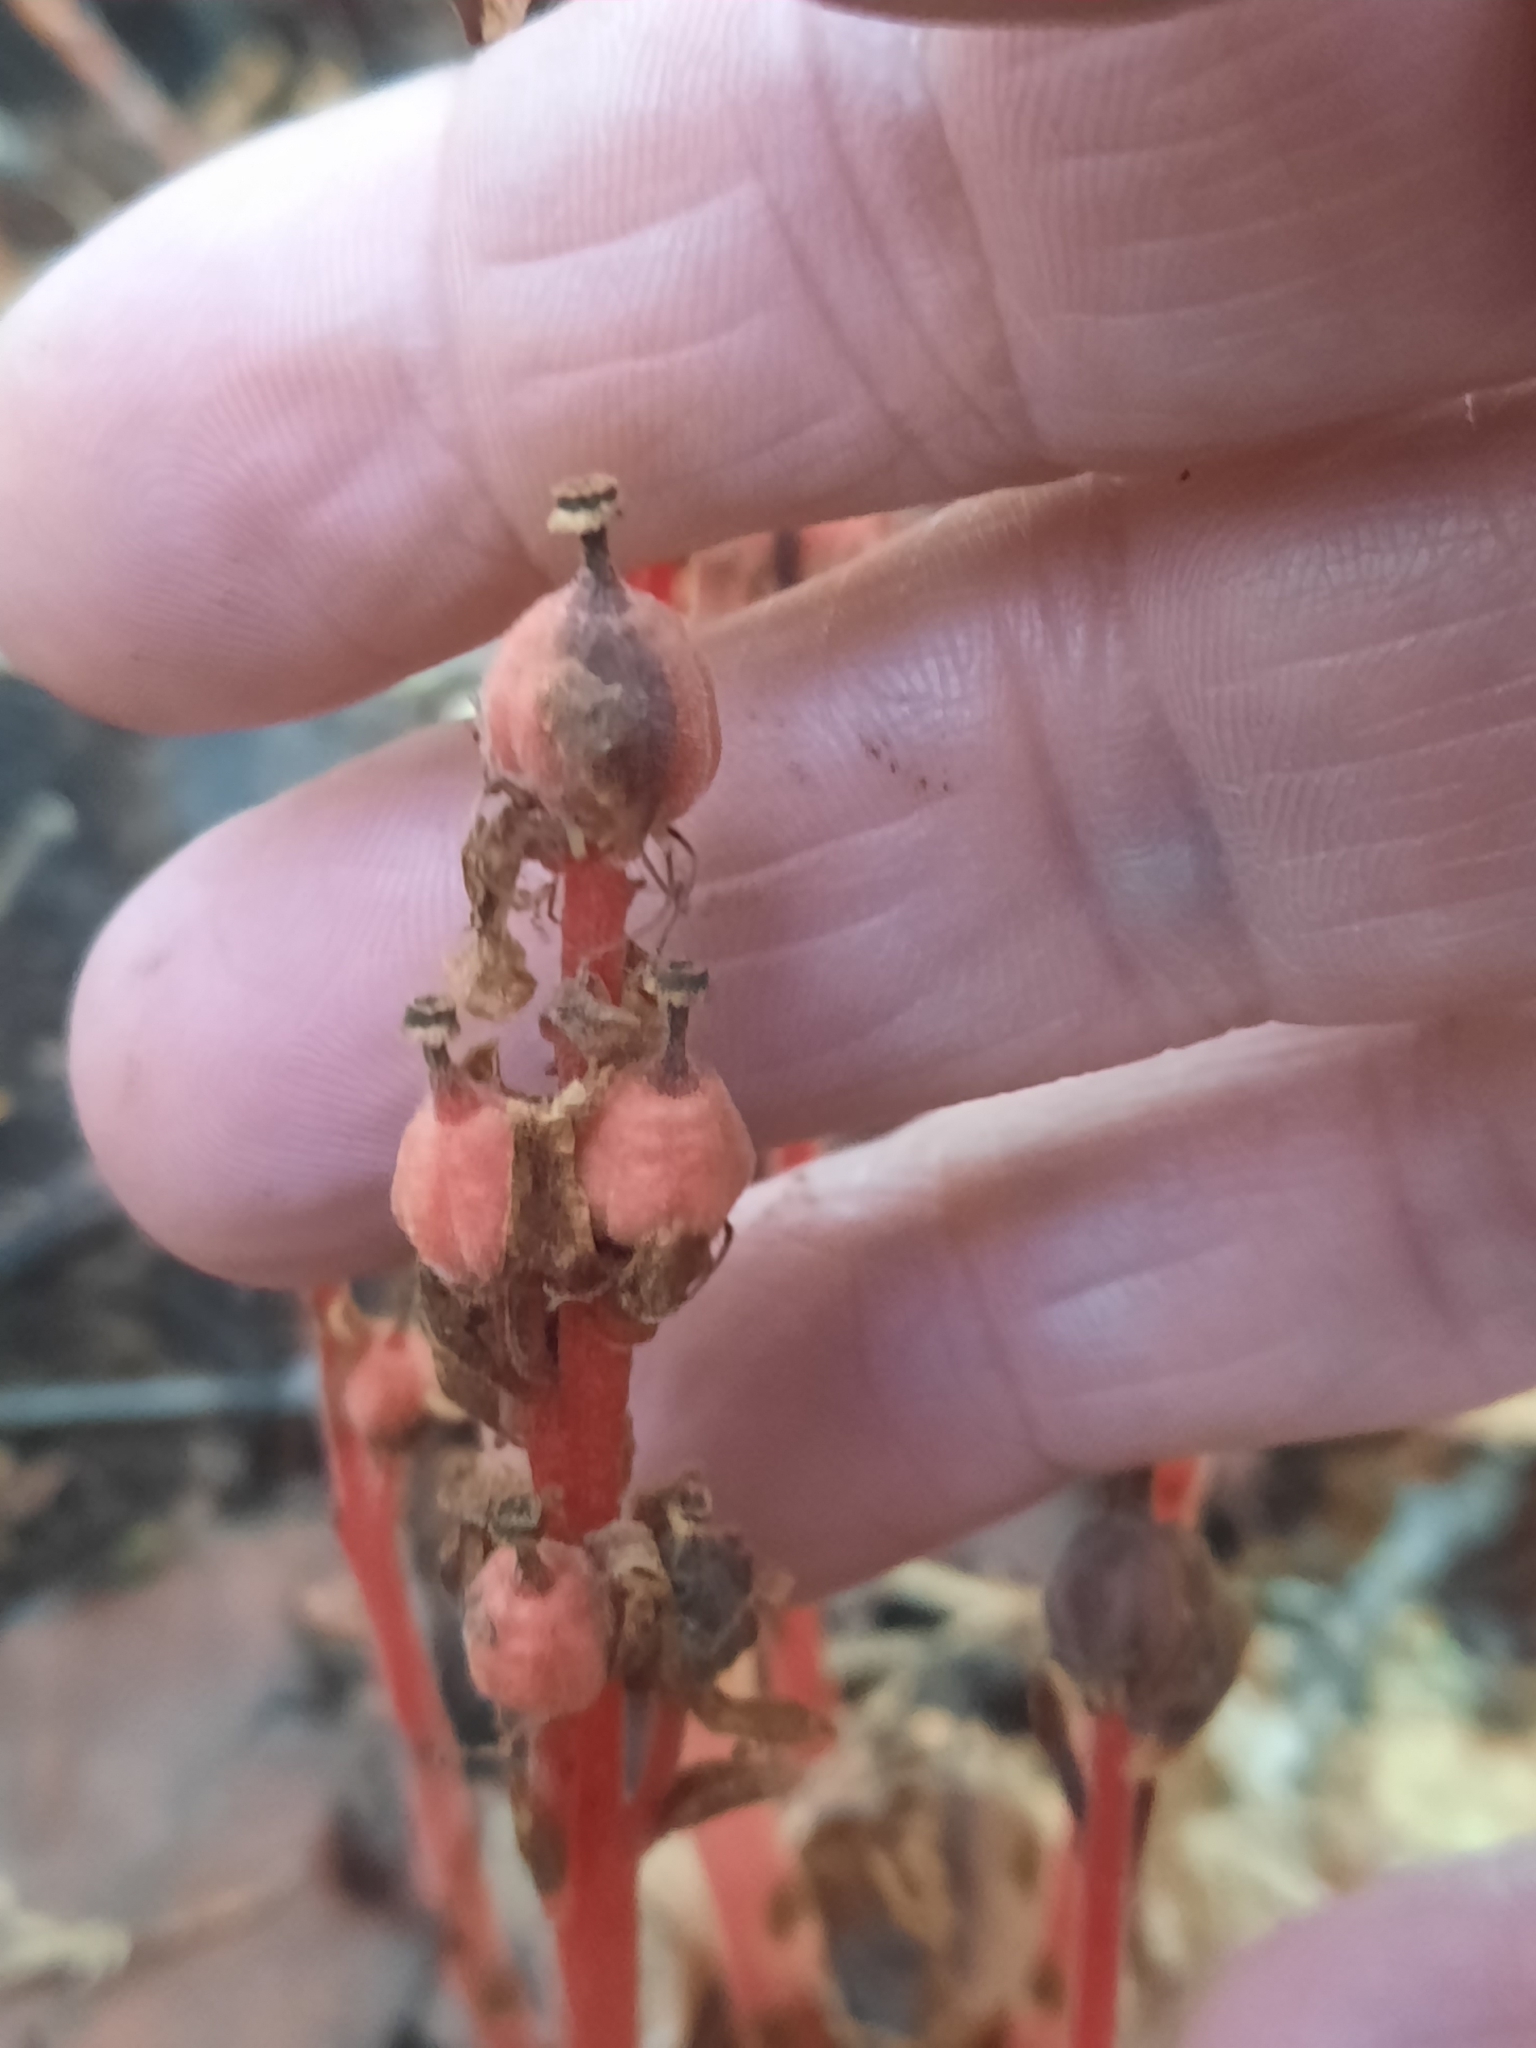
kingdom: Plantae
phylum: Tracheophyta
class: Magnoliopsida
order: Ericales
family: Ericaceae
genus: Hypopitys
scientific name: Hypopitys monotropa
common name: Yellow bird's-nest
